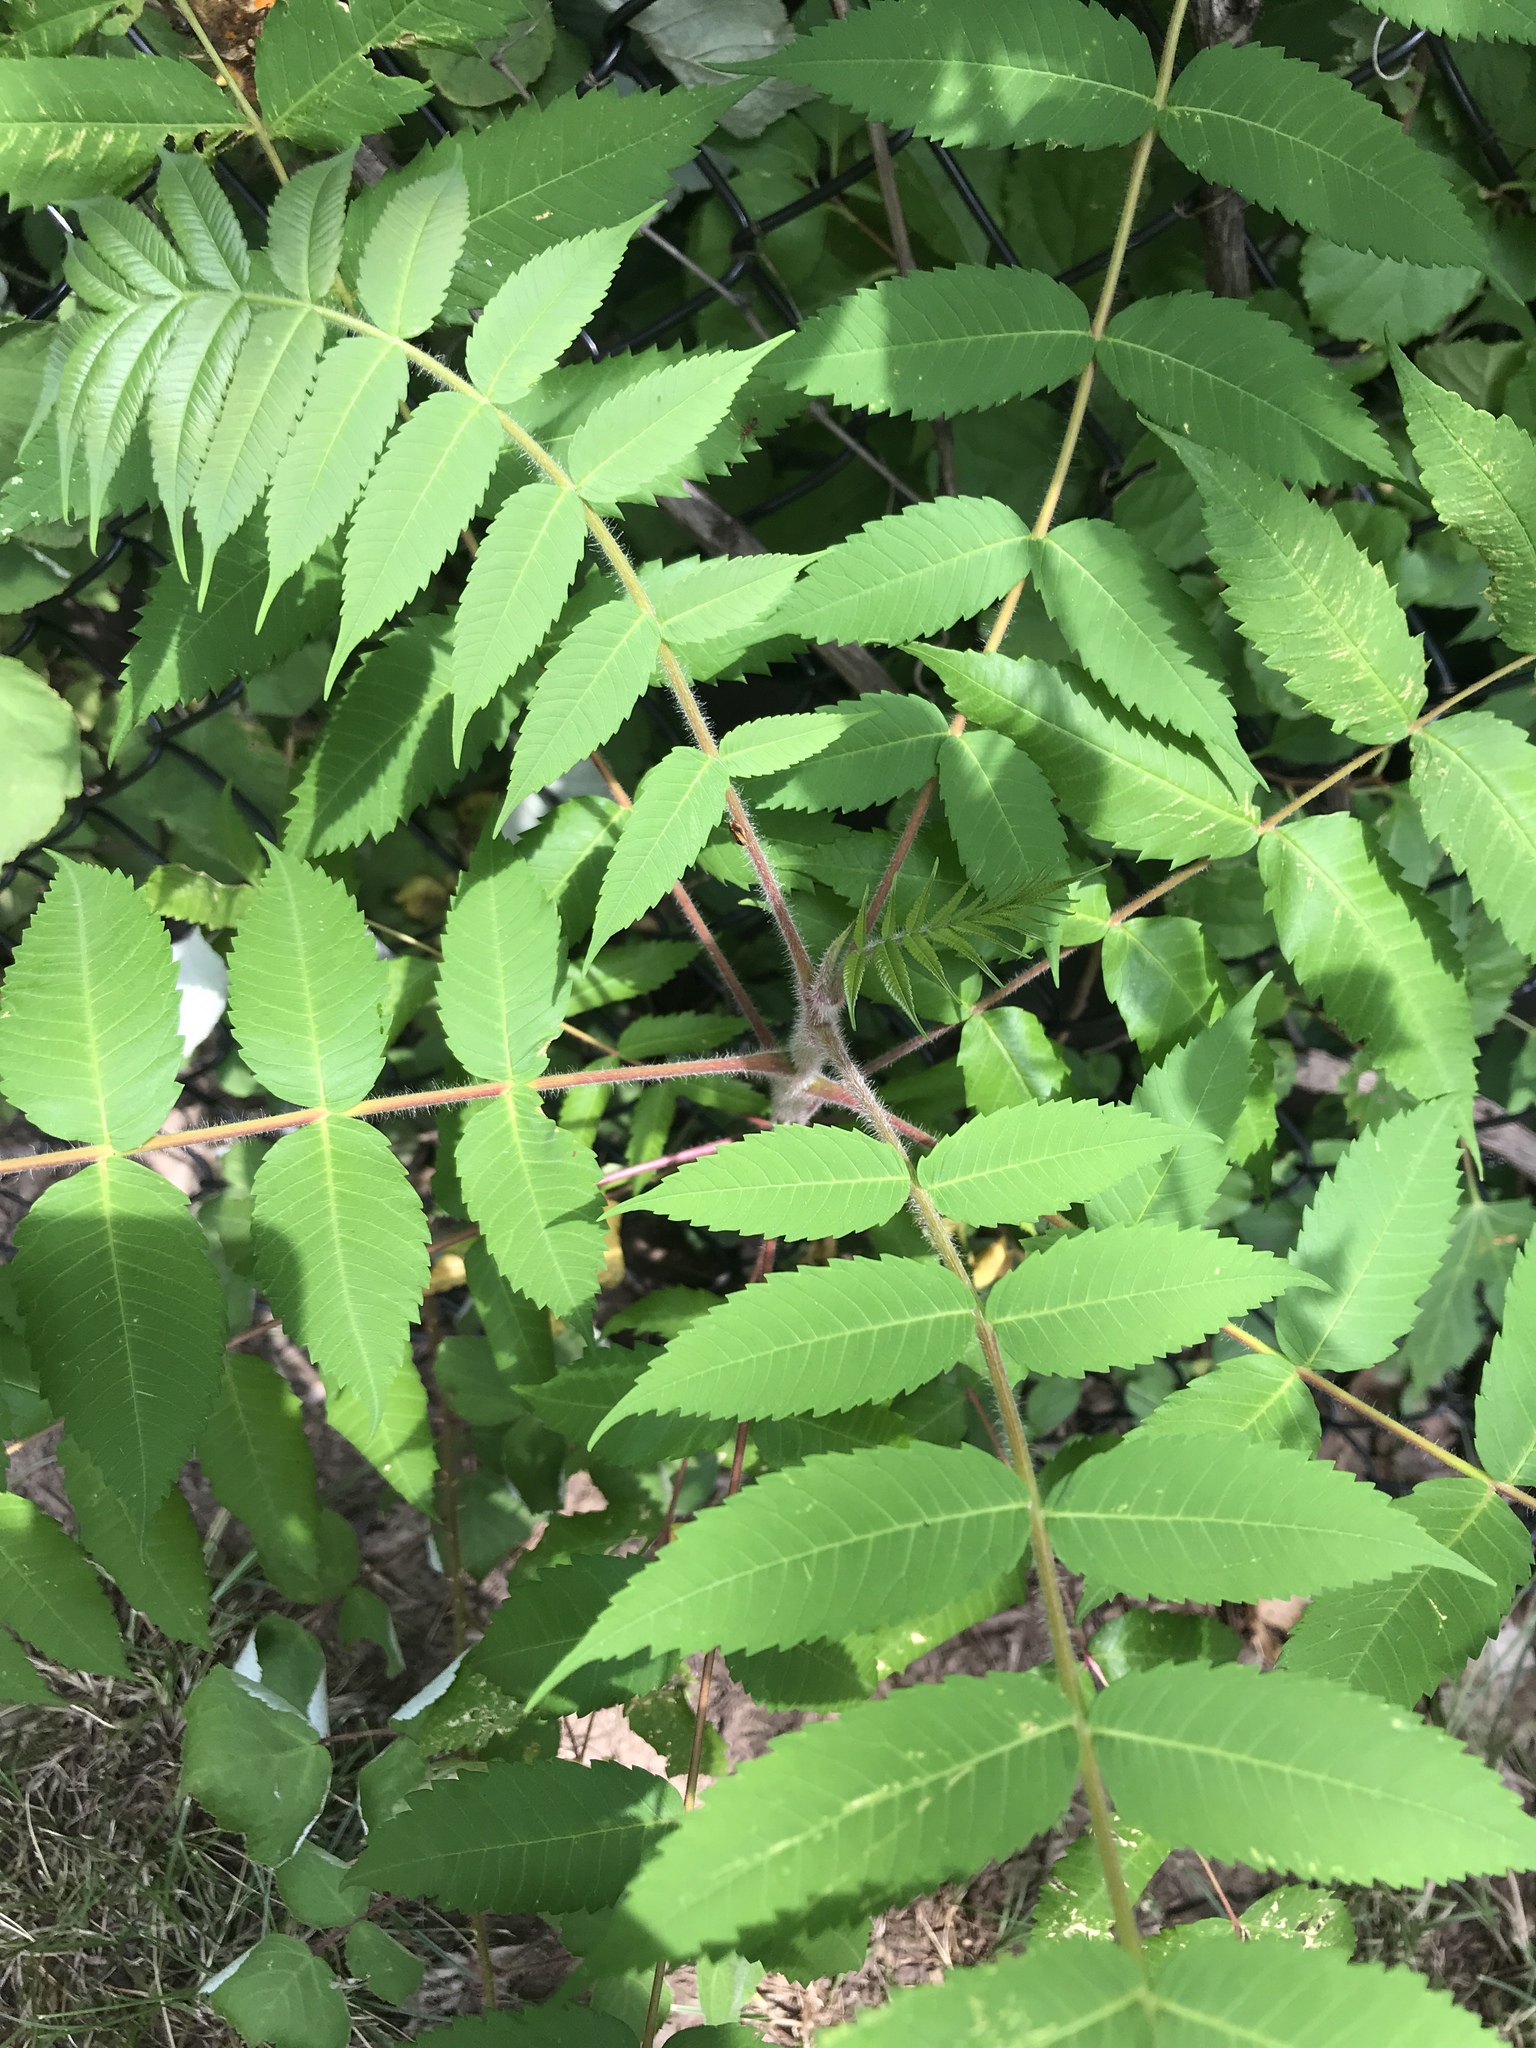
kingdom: Plantae
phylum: Tracheophyta
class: Magnoliopsida
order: Sapindales
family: Anacardiaceae
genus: Rhus
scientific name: Rhus typhina
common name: Staghorn sumac
